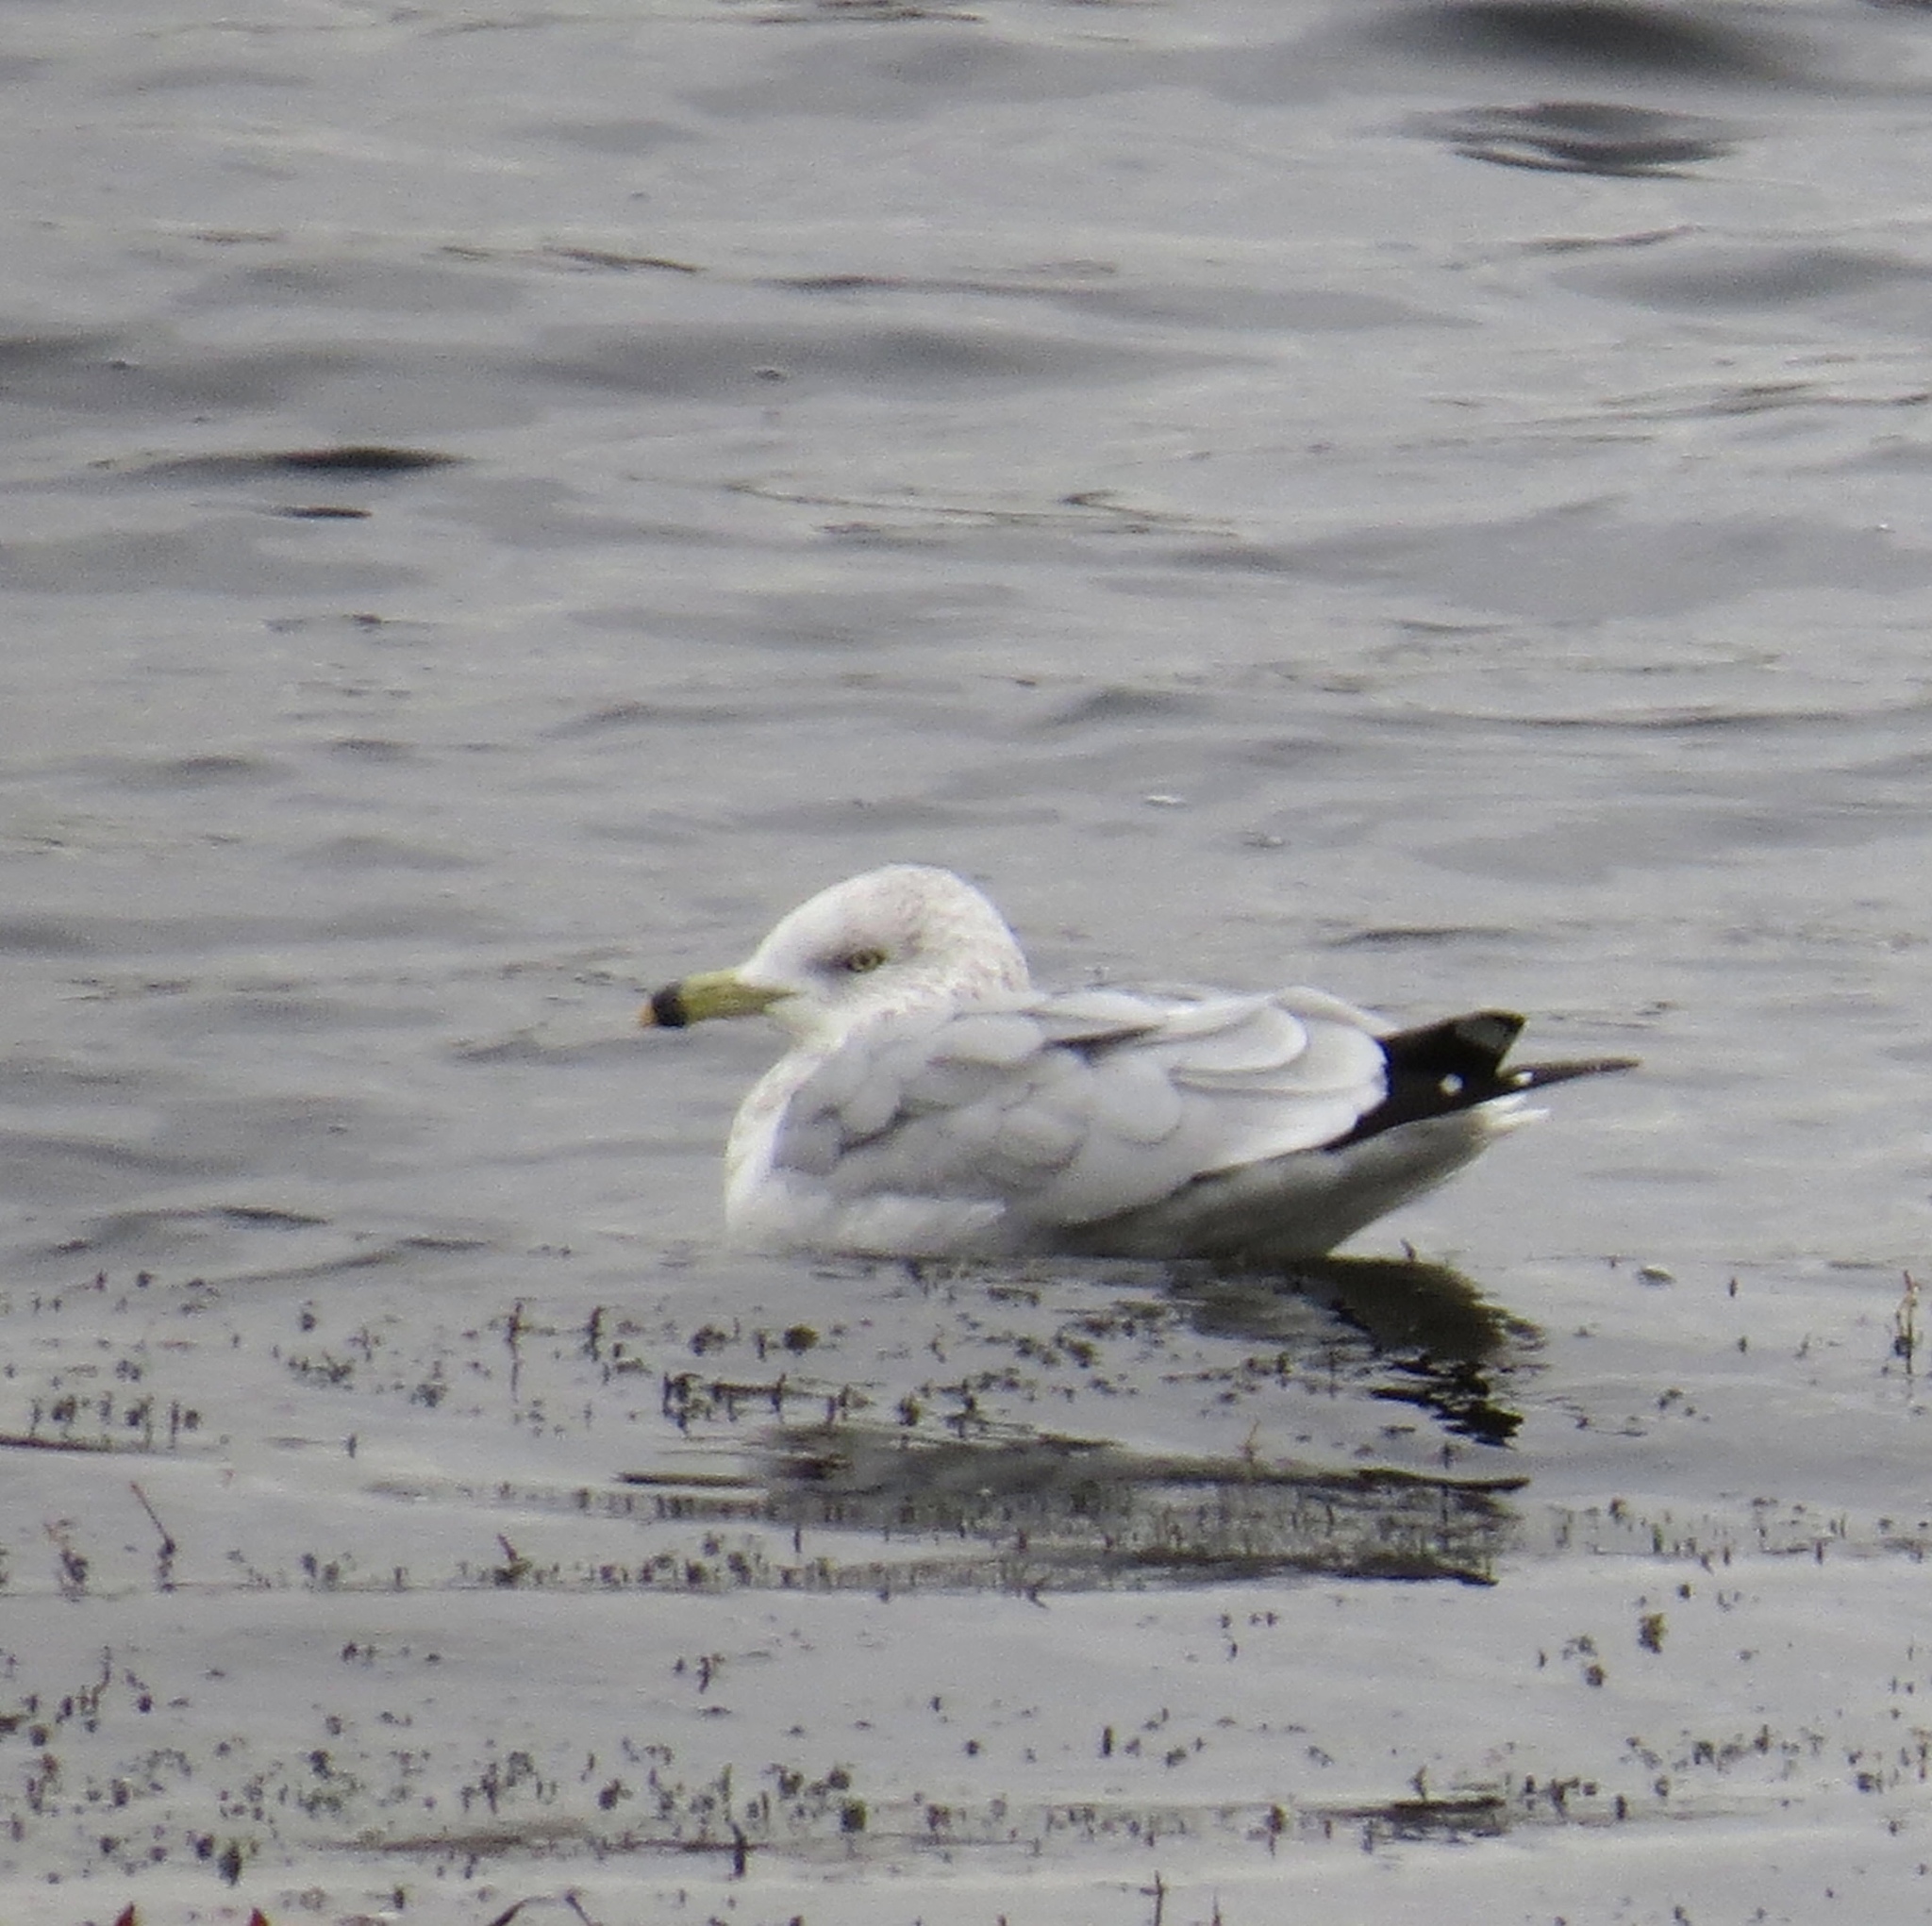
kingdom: Animalia
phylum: Chordata
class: Aves
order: Charadriiformes
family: Laridae
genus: Larus
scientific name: Larus delawarensis
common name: Ring-billed gull
